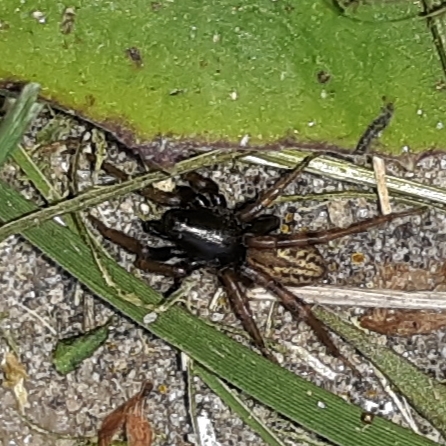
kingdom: Animalia
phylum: Arthropoda
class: Arachnida
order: Araneae
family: Lycosidae
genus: Allocosa
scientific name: Allocosa funerea
